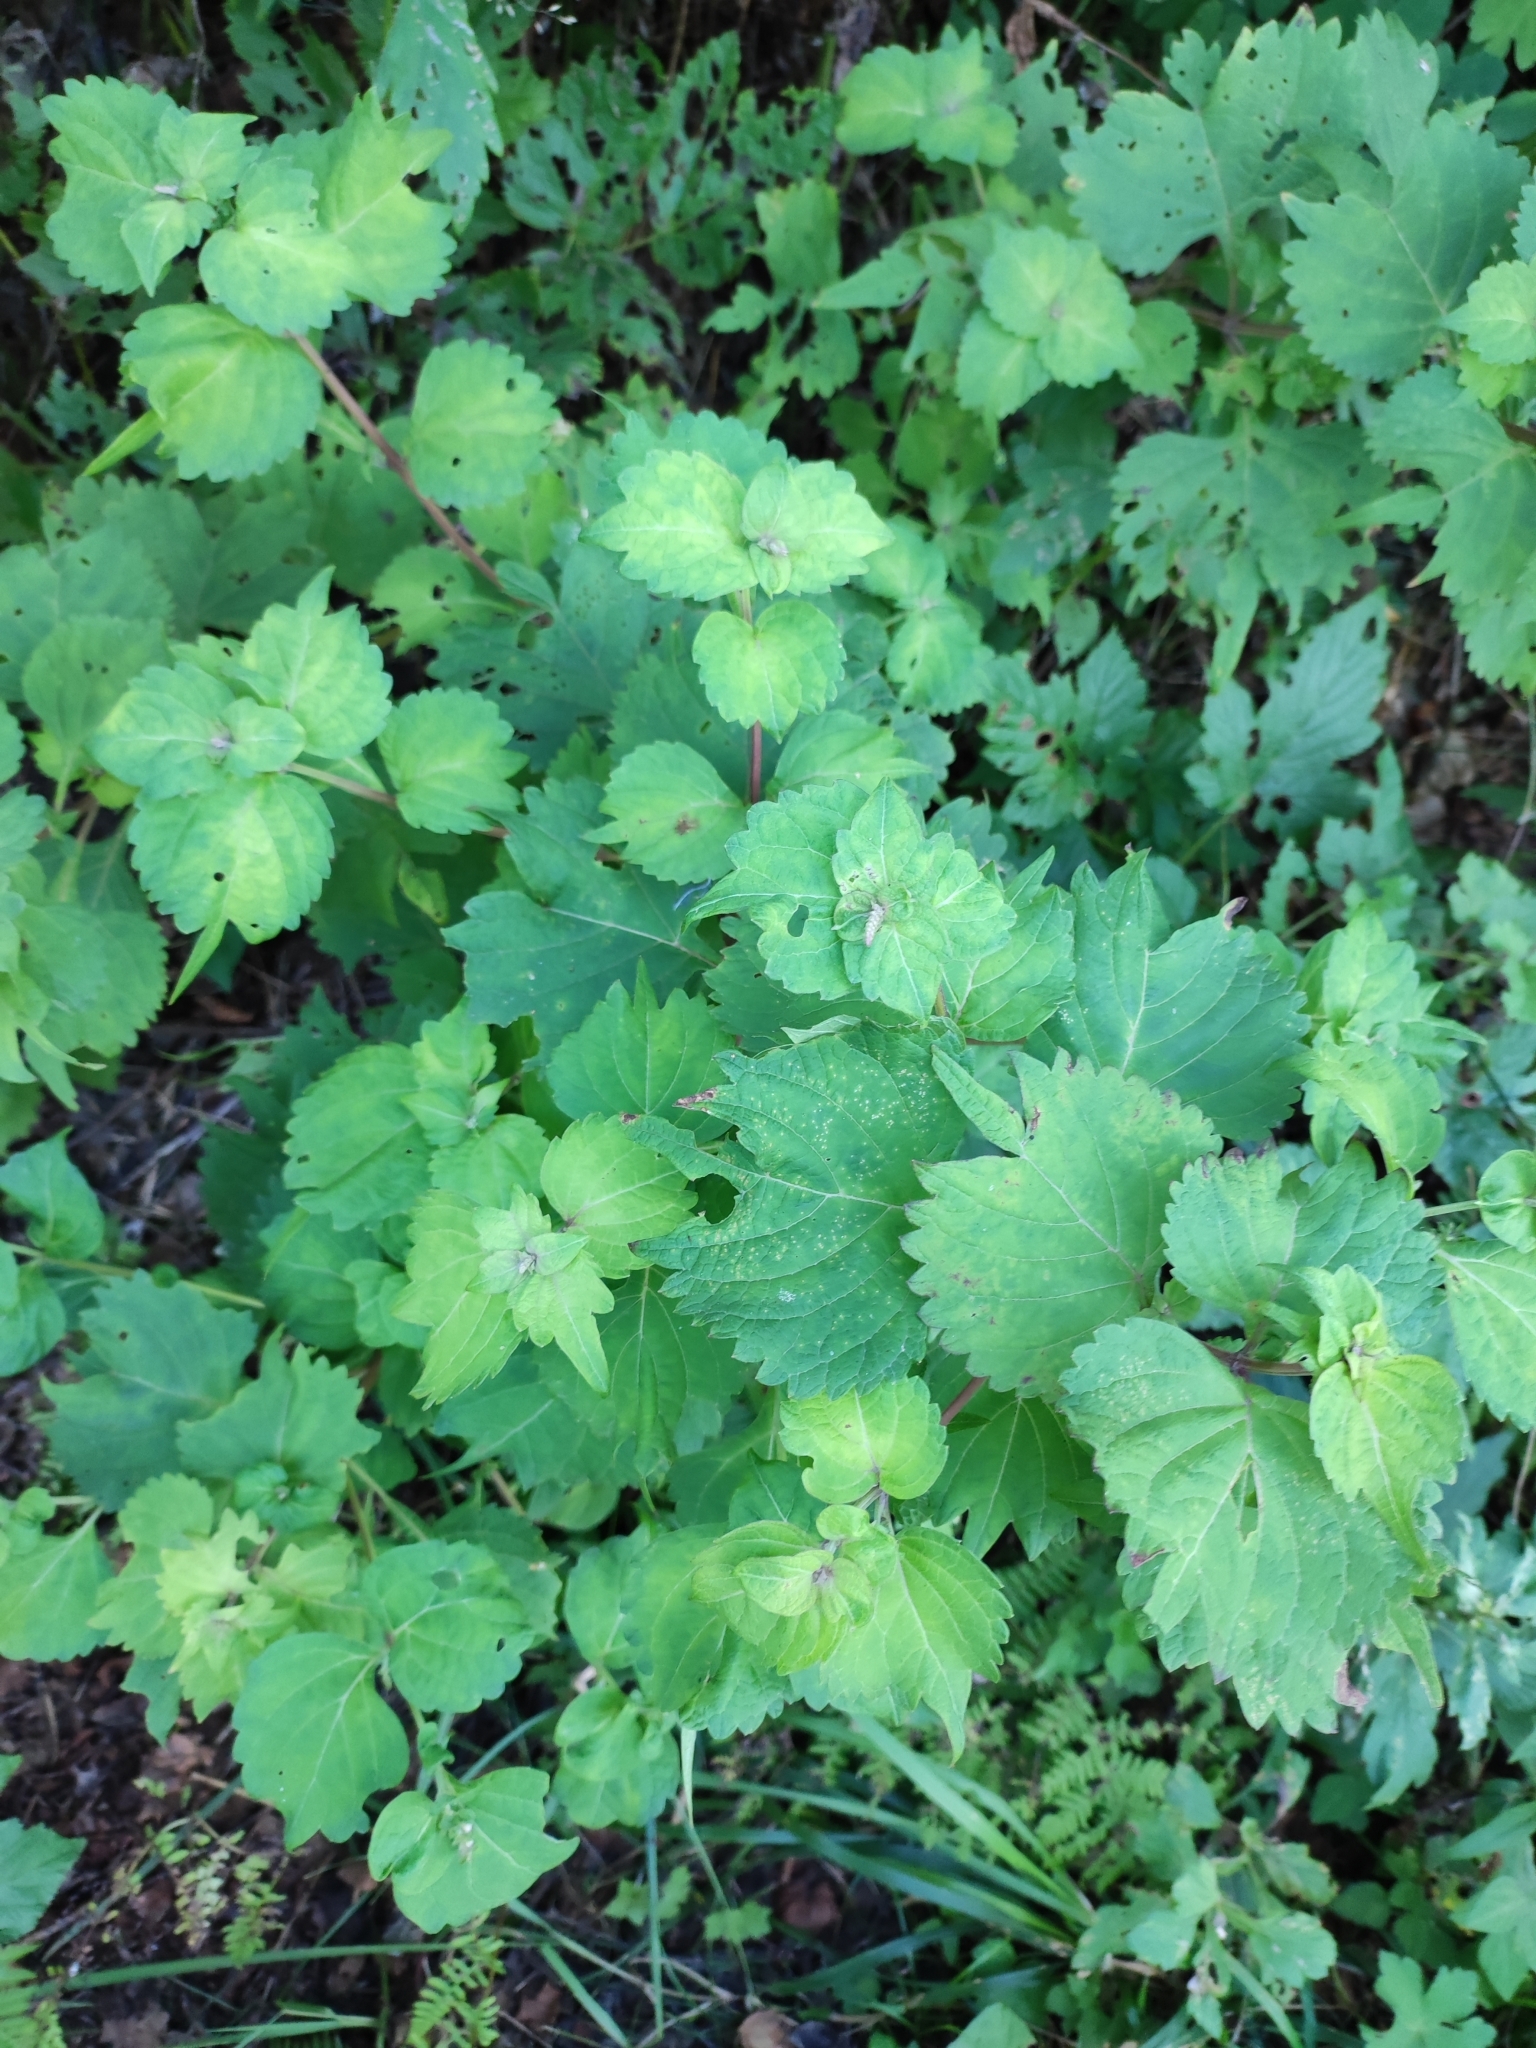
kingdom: Plantae
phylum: Tracheophyta
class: Magnoliopsida
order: Lamiales
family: Lamiaceae
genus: Isodon
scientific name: Isodon excisus
